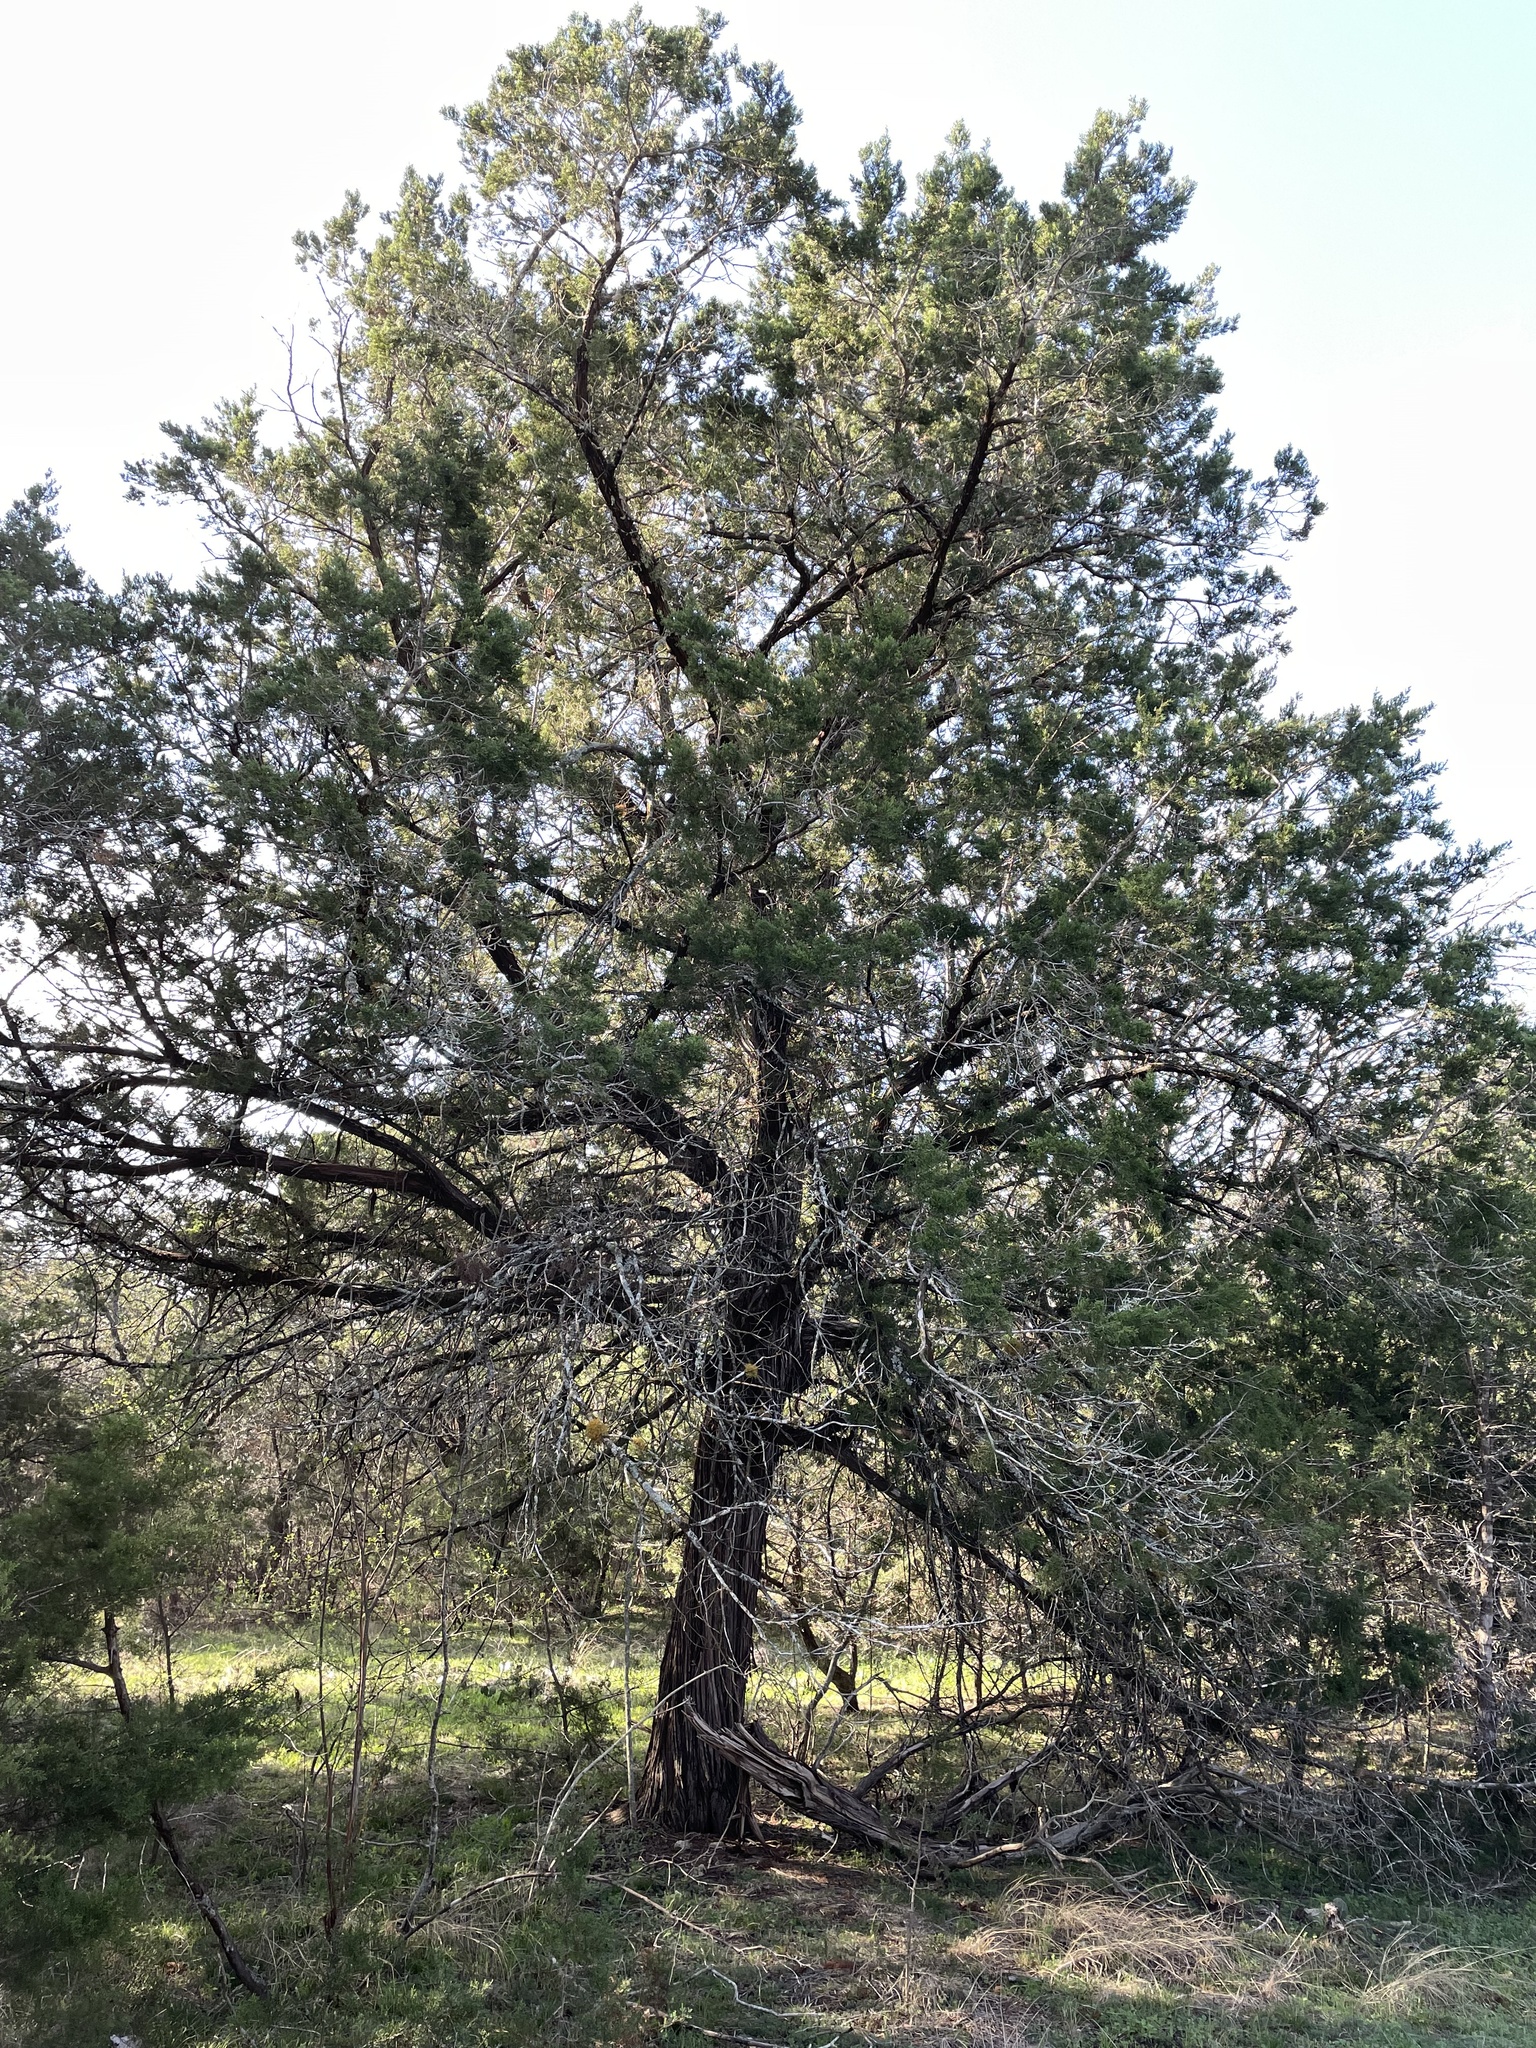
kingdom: Plantae
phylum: Tracheophyta
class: Pinopsida
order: Pinales
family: Cupressaceae
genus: Juniperus
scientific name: Juniperus ashei
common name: Mexican juniper
